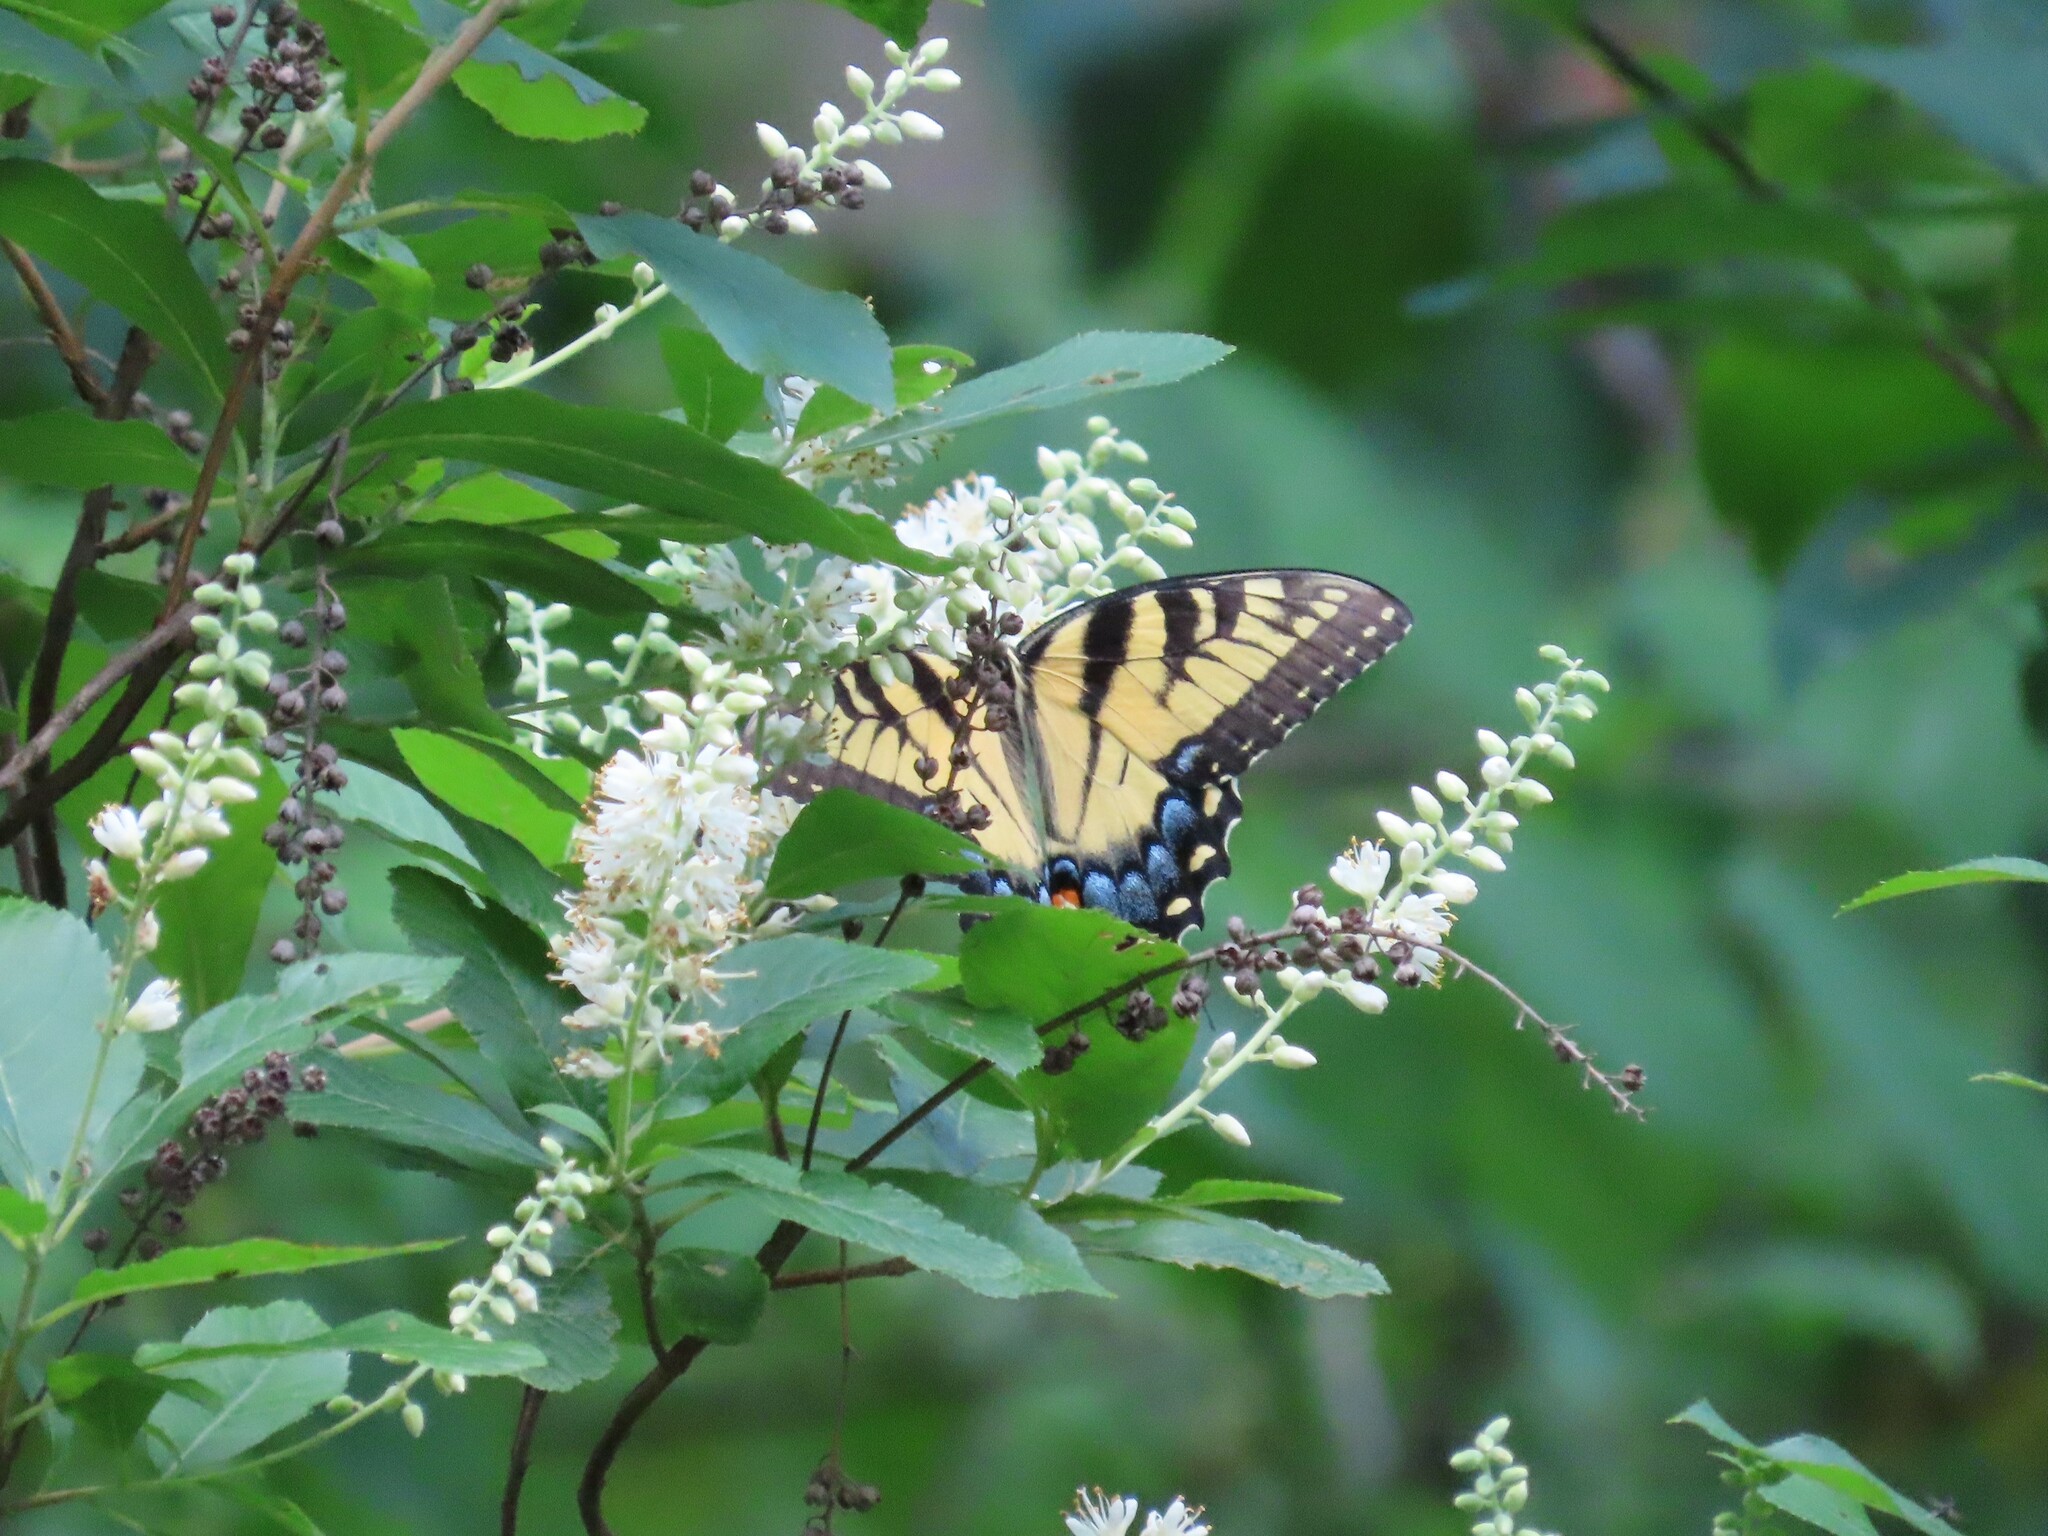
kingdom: Animalia
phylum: Arthropoda
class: Insecta
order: Lepidoptera
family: Papilionidae
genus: Papilio
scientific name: Papilio glaucus
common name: Tiger swallowtail
